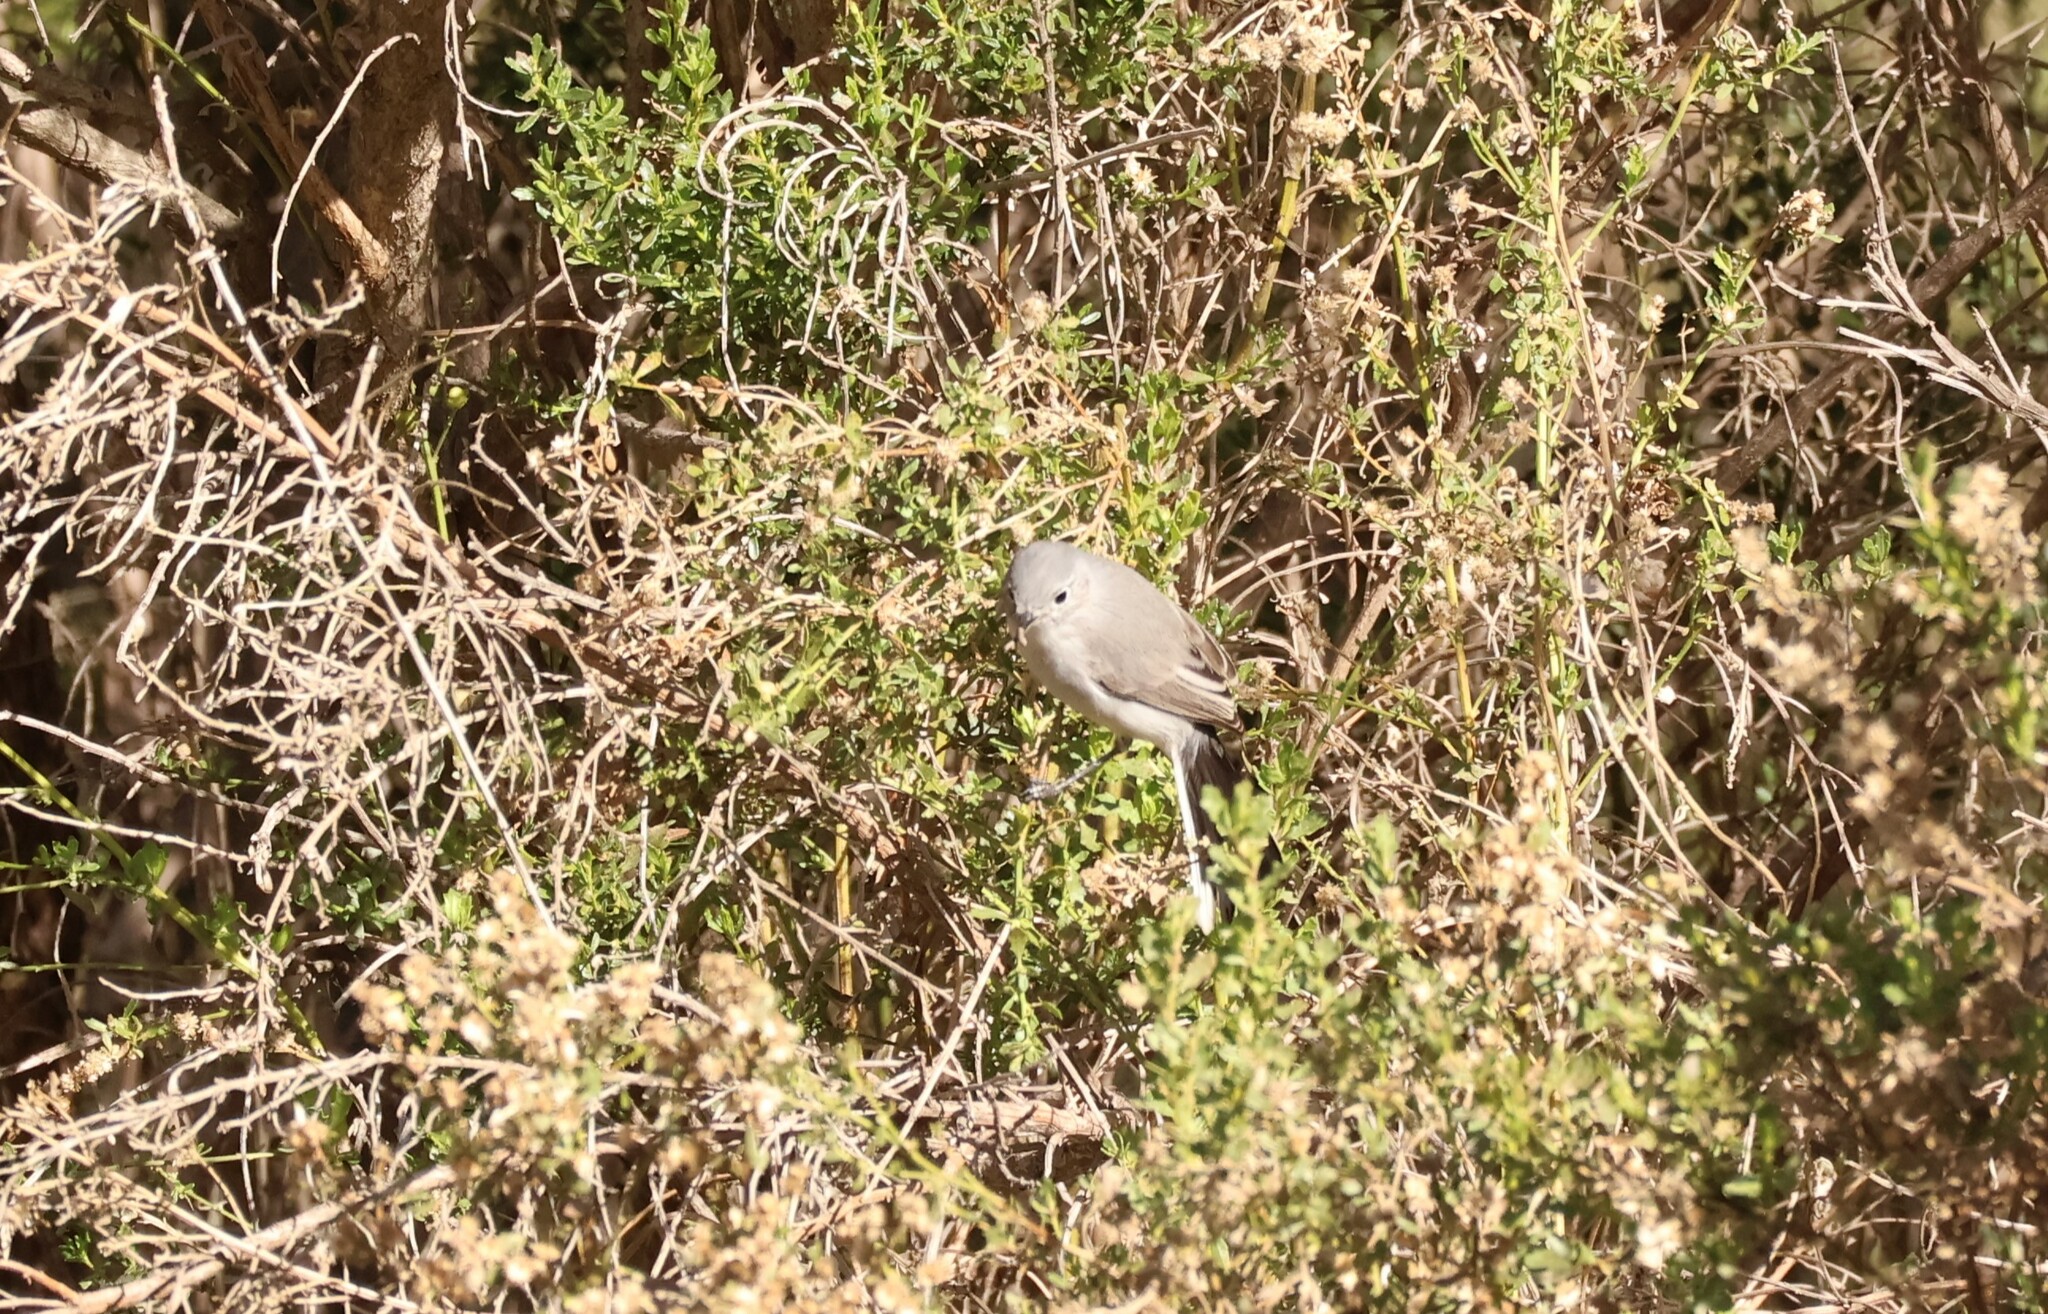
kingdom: Animalia
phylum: Chordata
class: Aves
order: Passeriformes
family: Polioptilidae
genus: Polioptila
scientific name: Polioptila caerulea
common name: Blue-gray gnatcatcher
